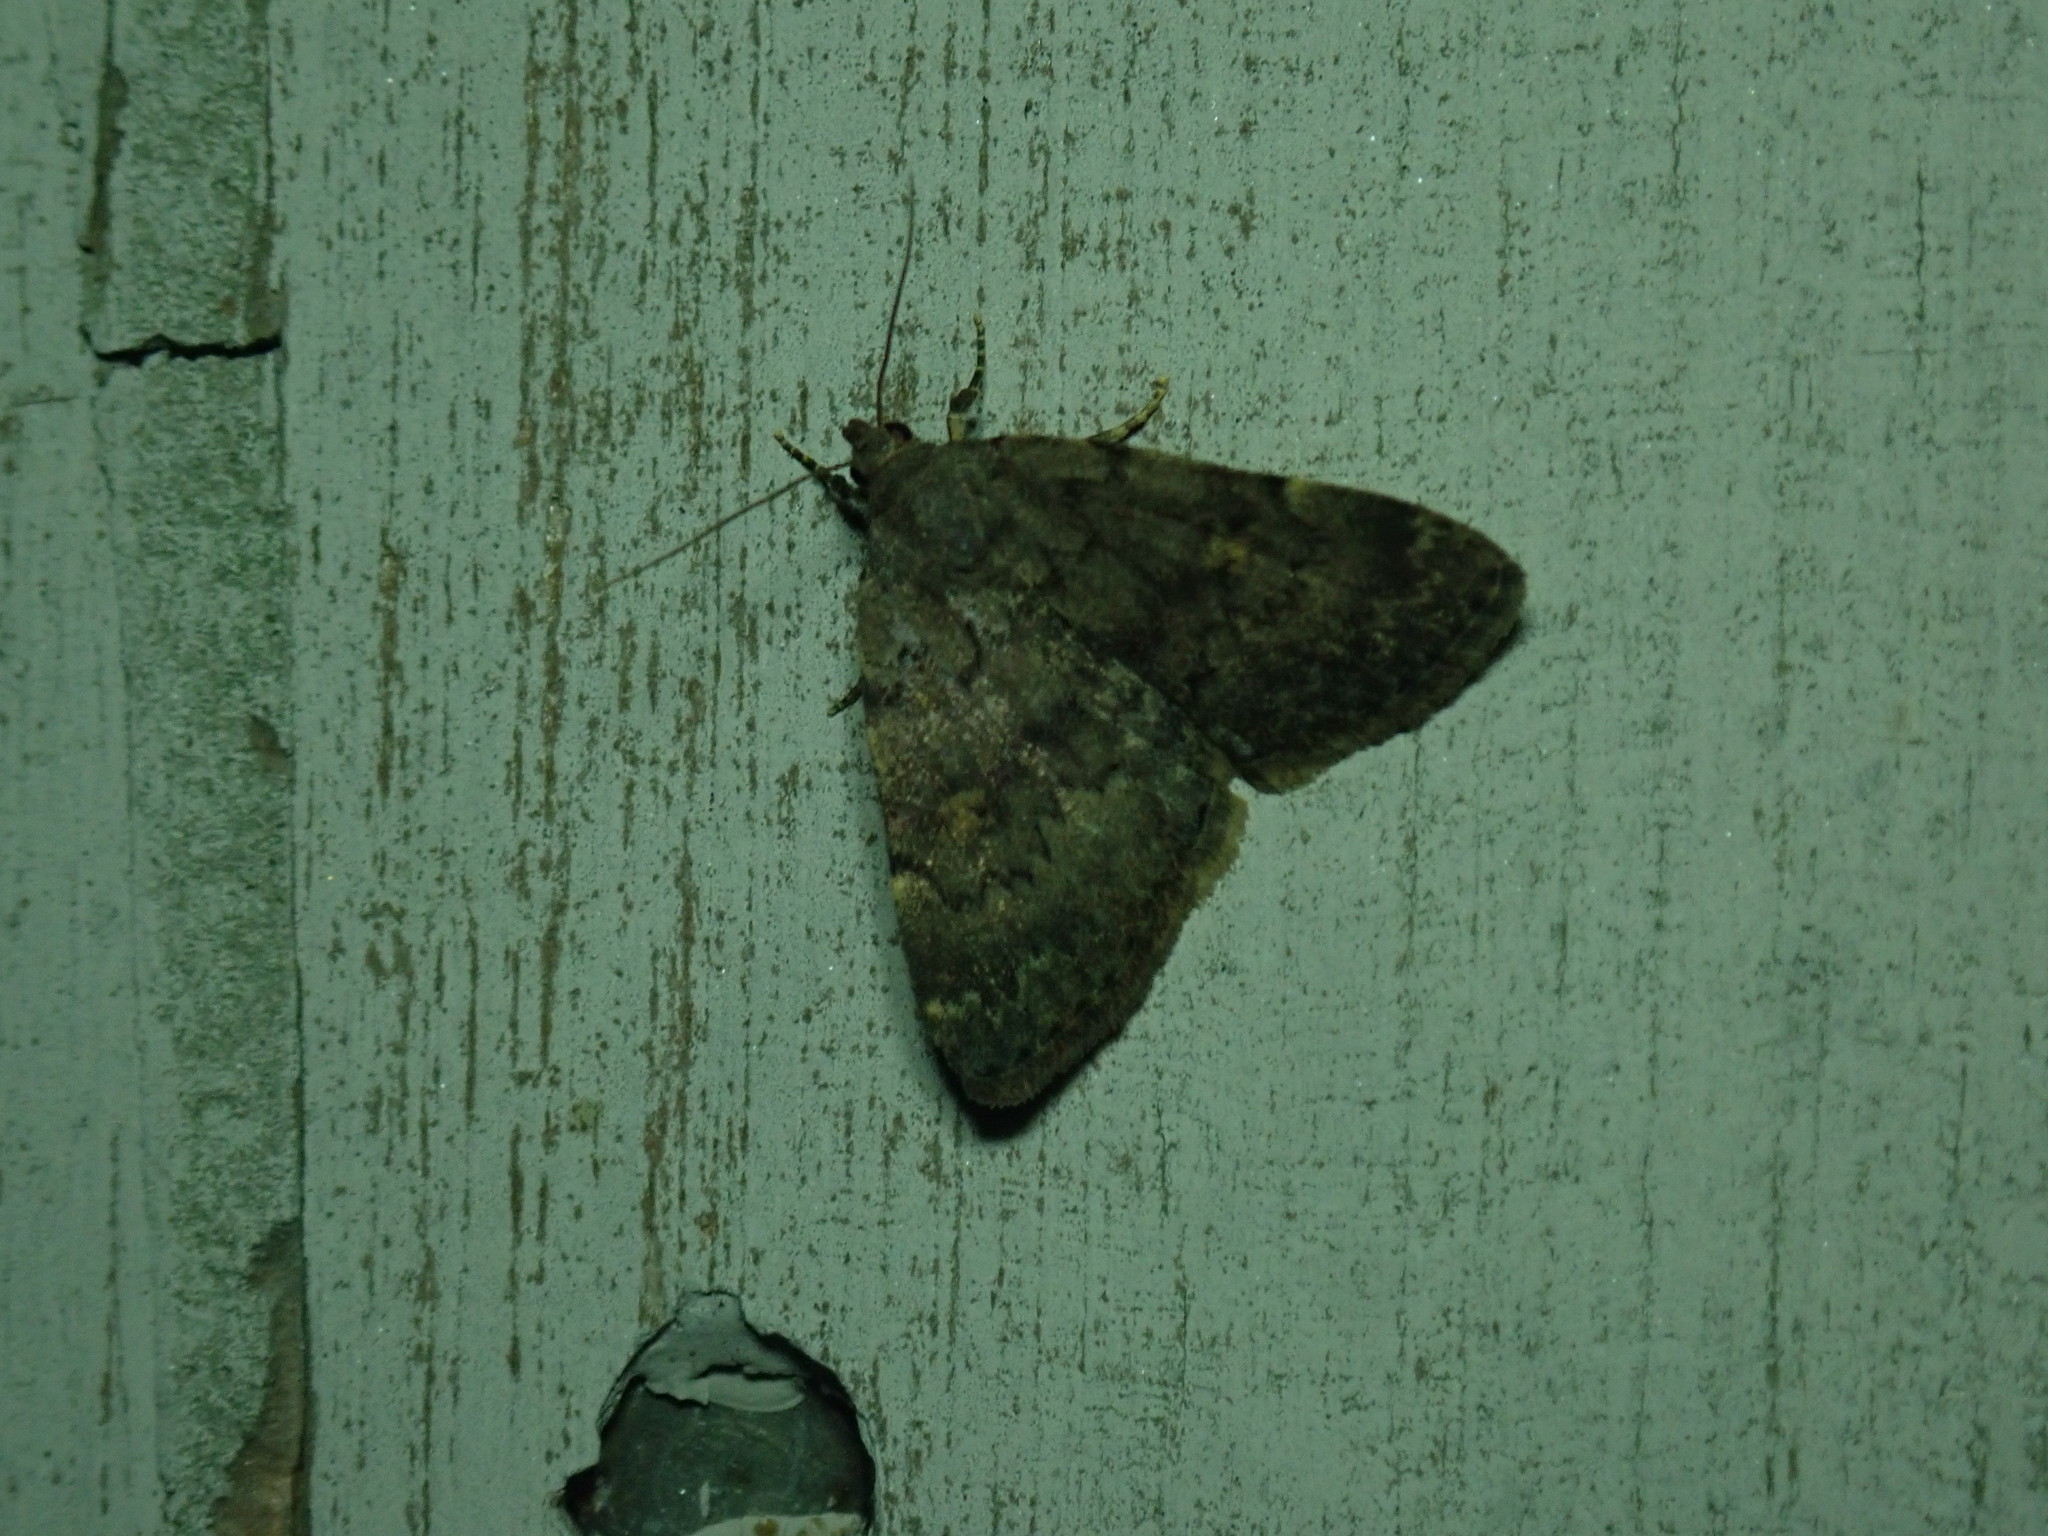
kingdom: Animalia
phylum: Arthropoda
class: Insecta
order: Lepidoptera
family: Erebidae
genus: Idia
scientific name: Idia aemula
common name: Common idia moth
